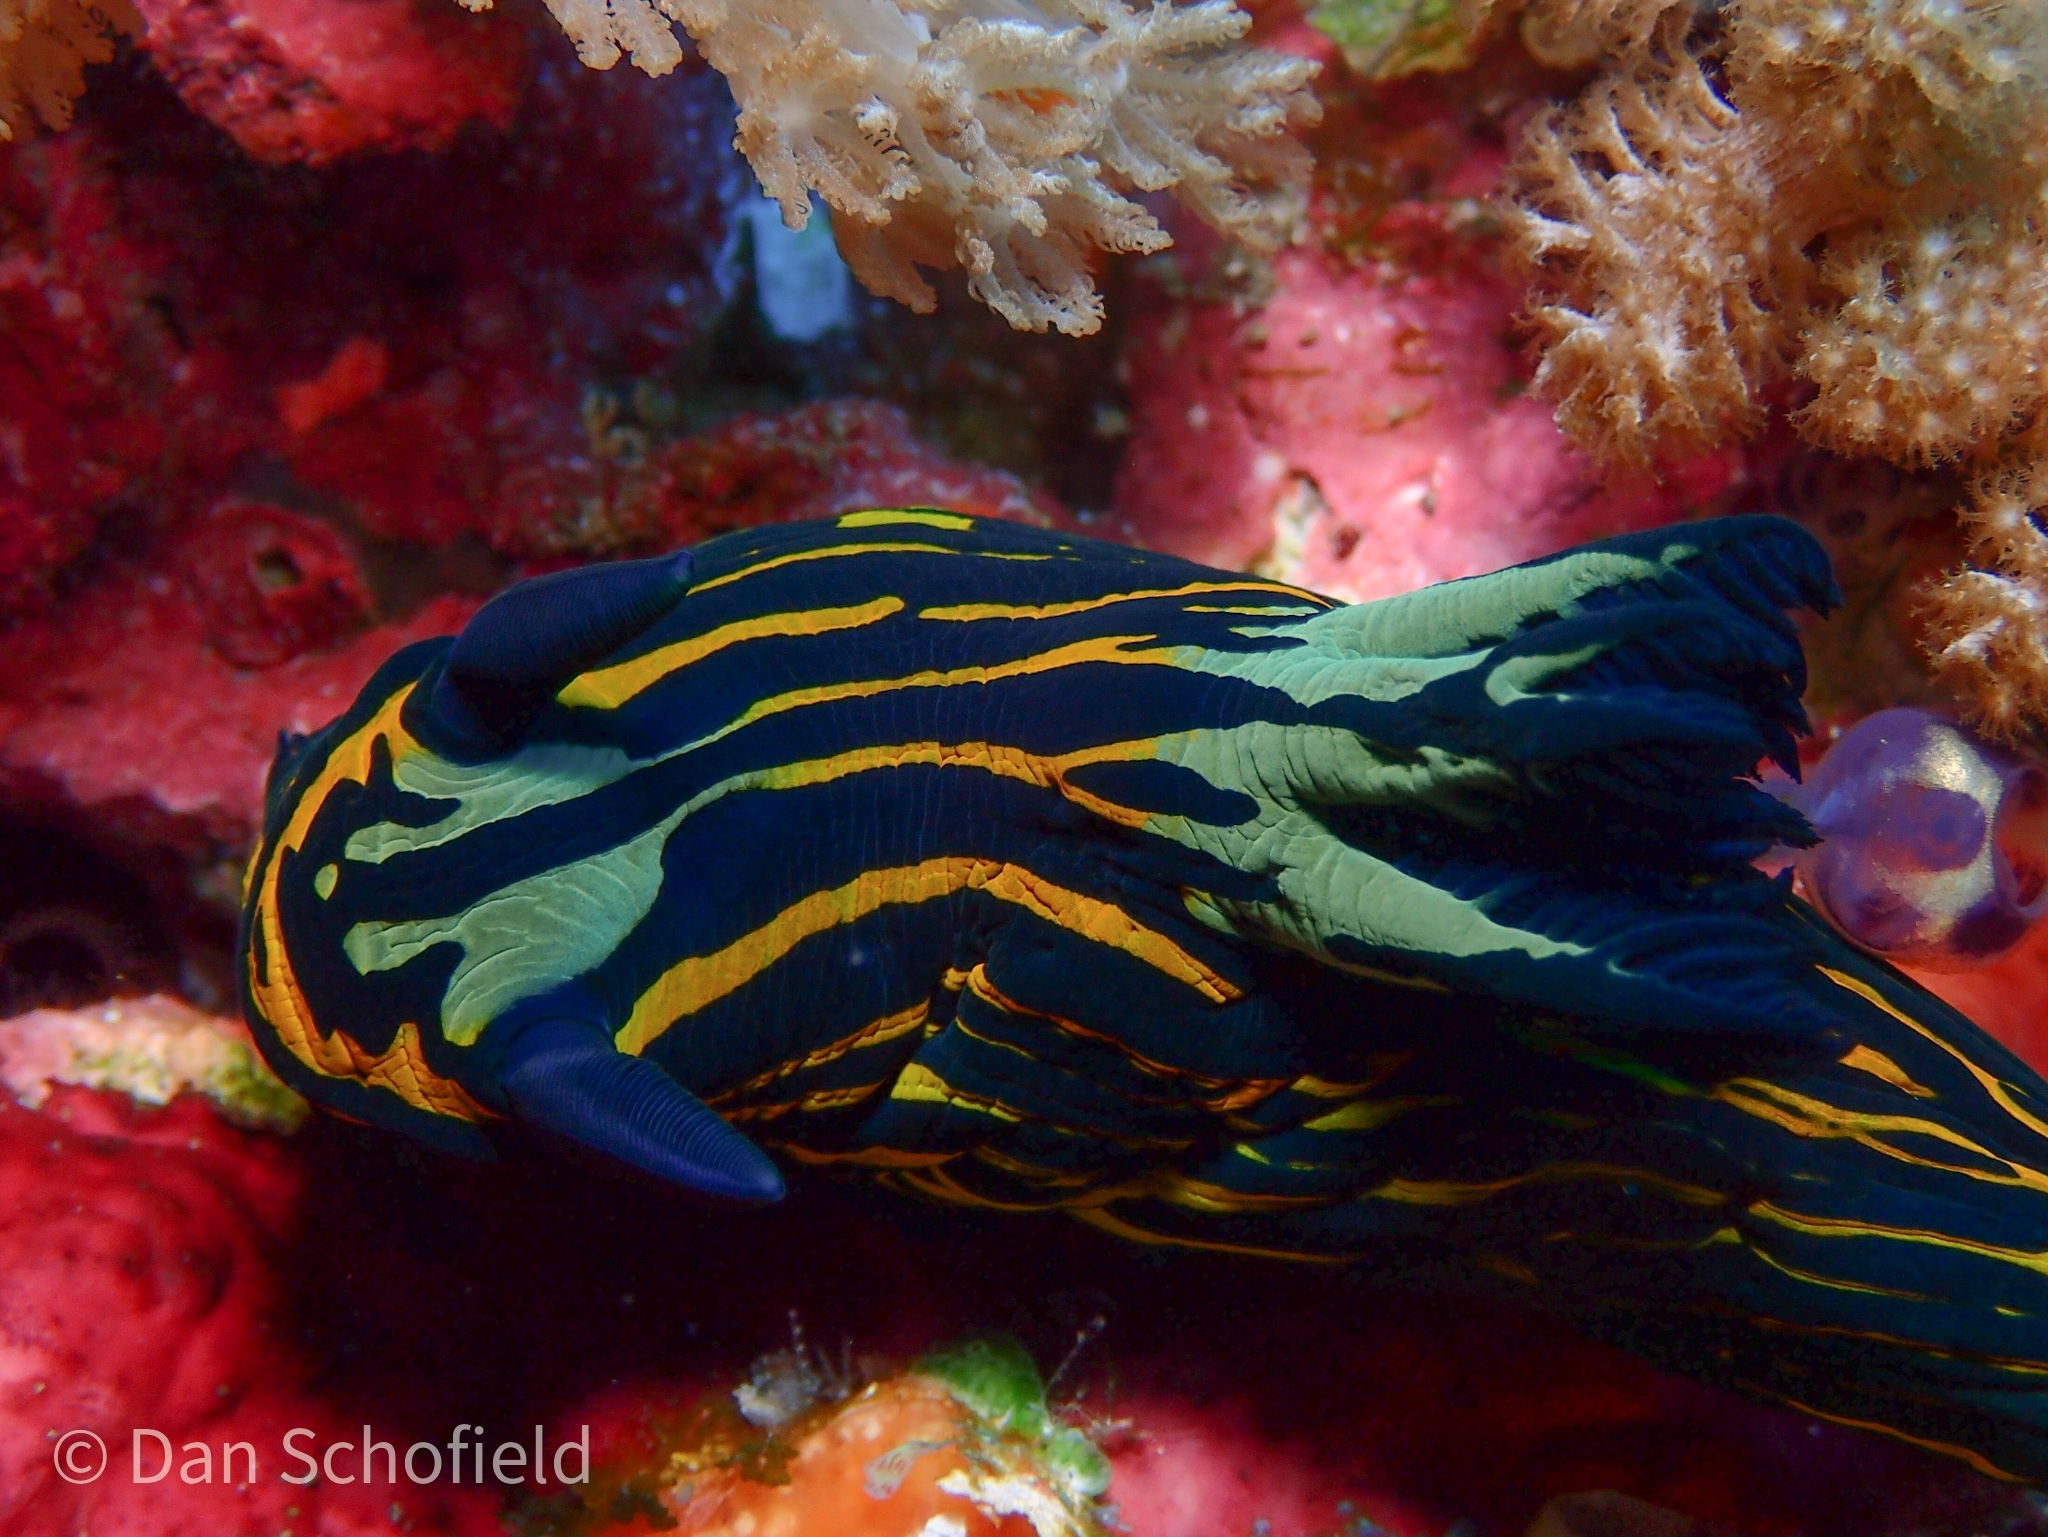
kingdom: Animalia
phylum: Mollusca
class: Gastropoda
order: Nudibranchia
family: Polyceridae
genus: Tyrannodoris
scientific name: Tyrannodoris luteolineata
